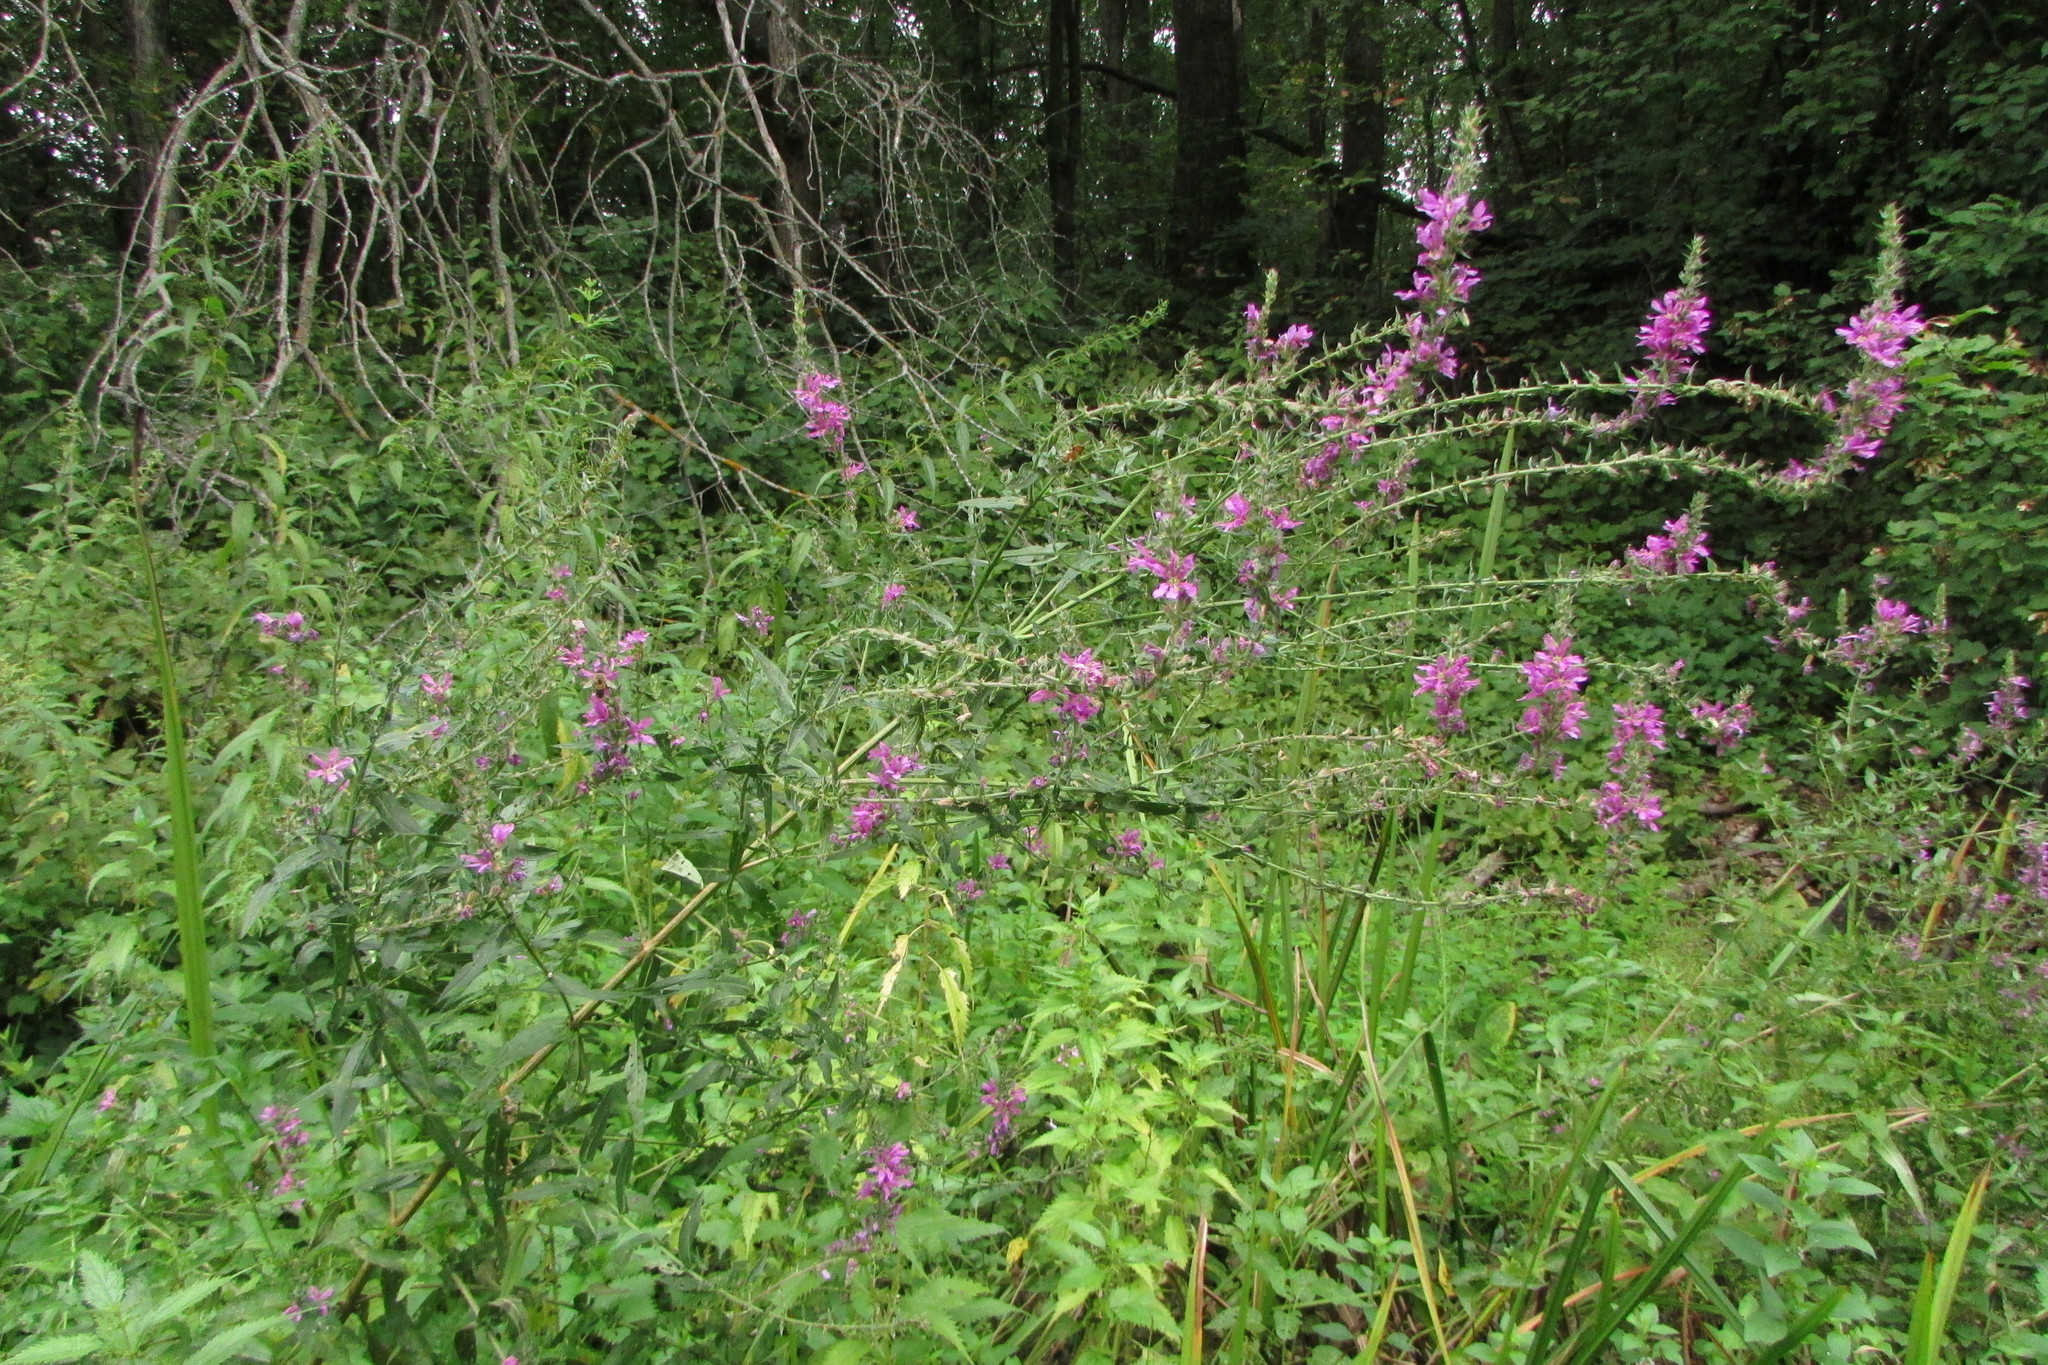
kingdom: Plantae
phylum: Tracheophyta
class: Magnoliopsida
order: Myrtales
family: Lythraceae
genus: Lythrum
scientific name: Lythrum salicaria
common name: Purple loosestrife
